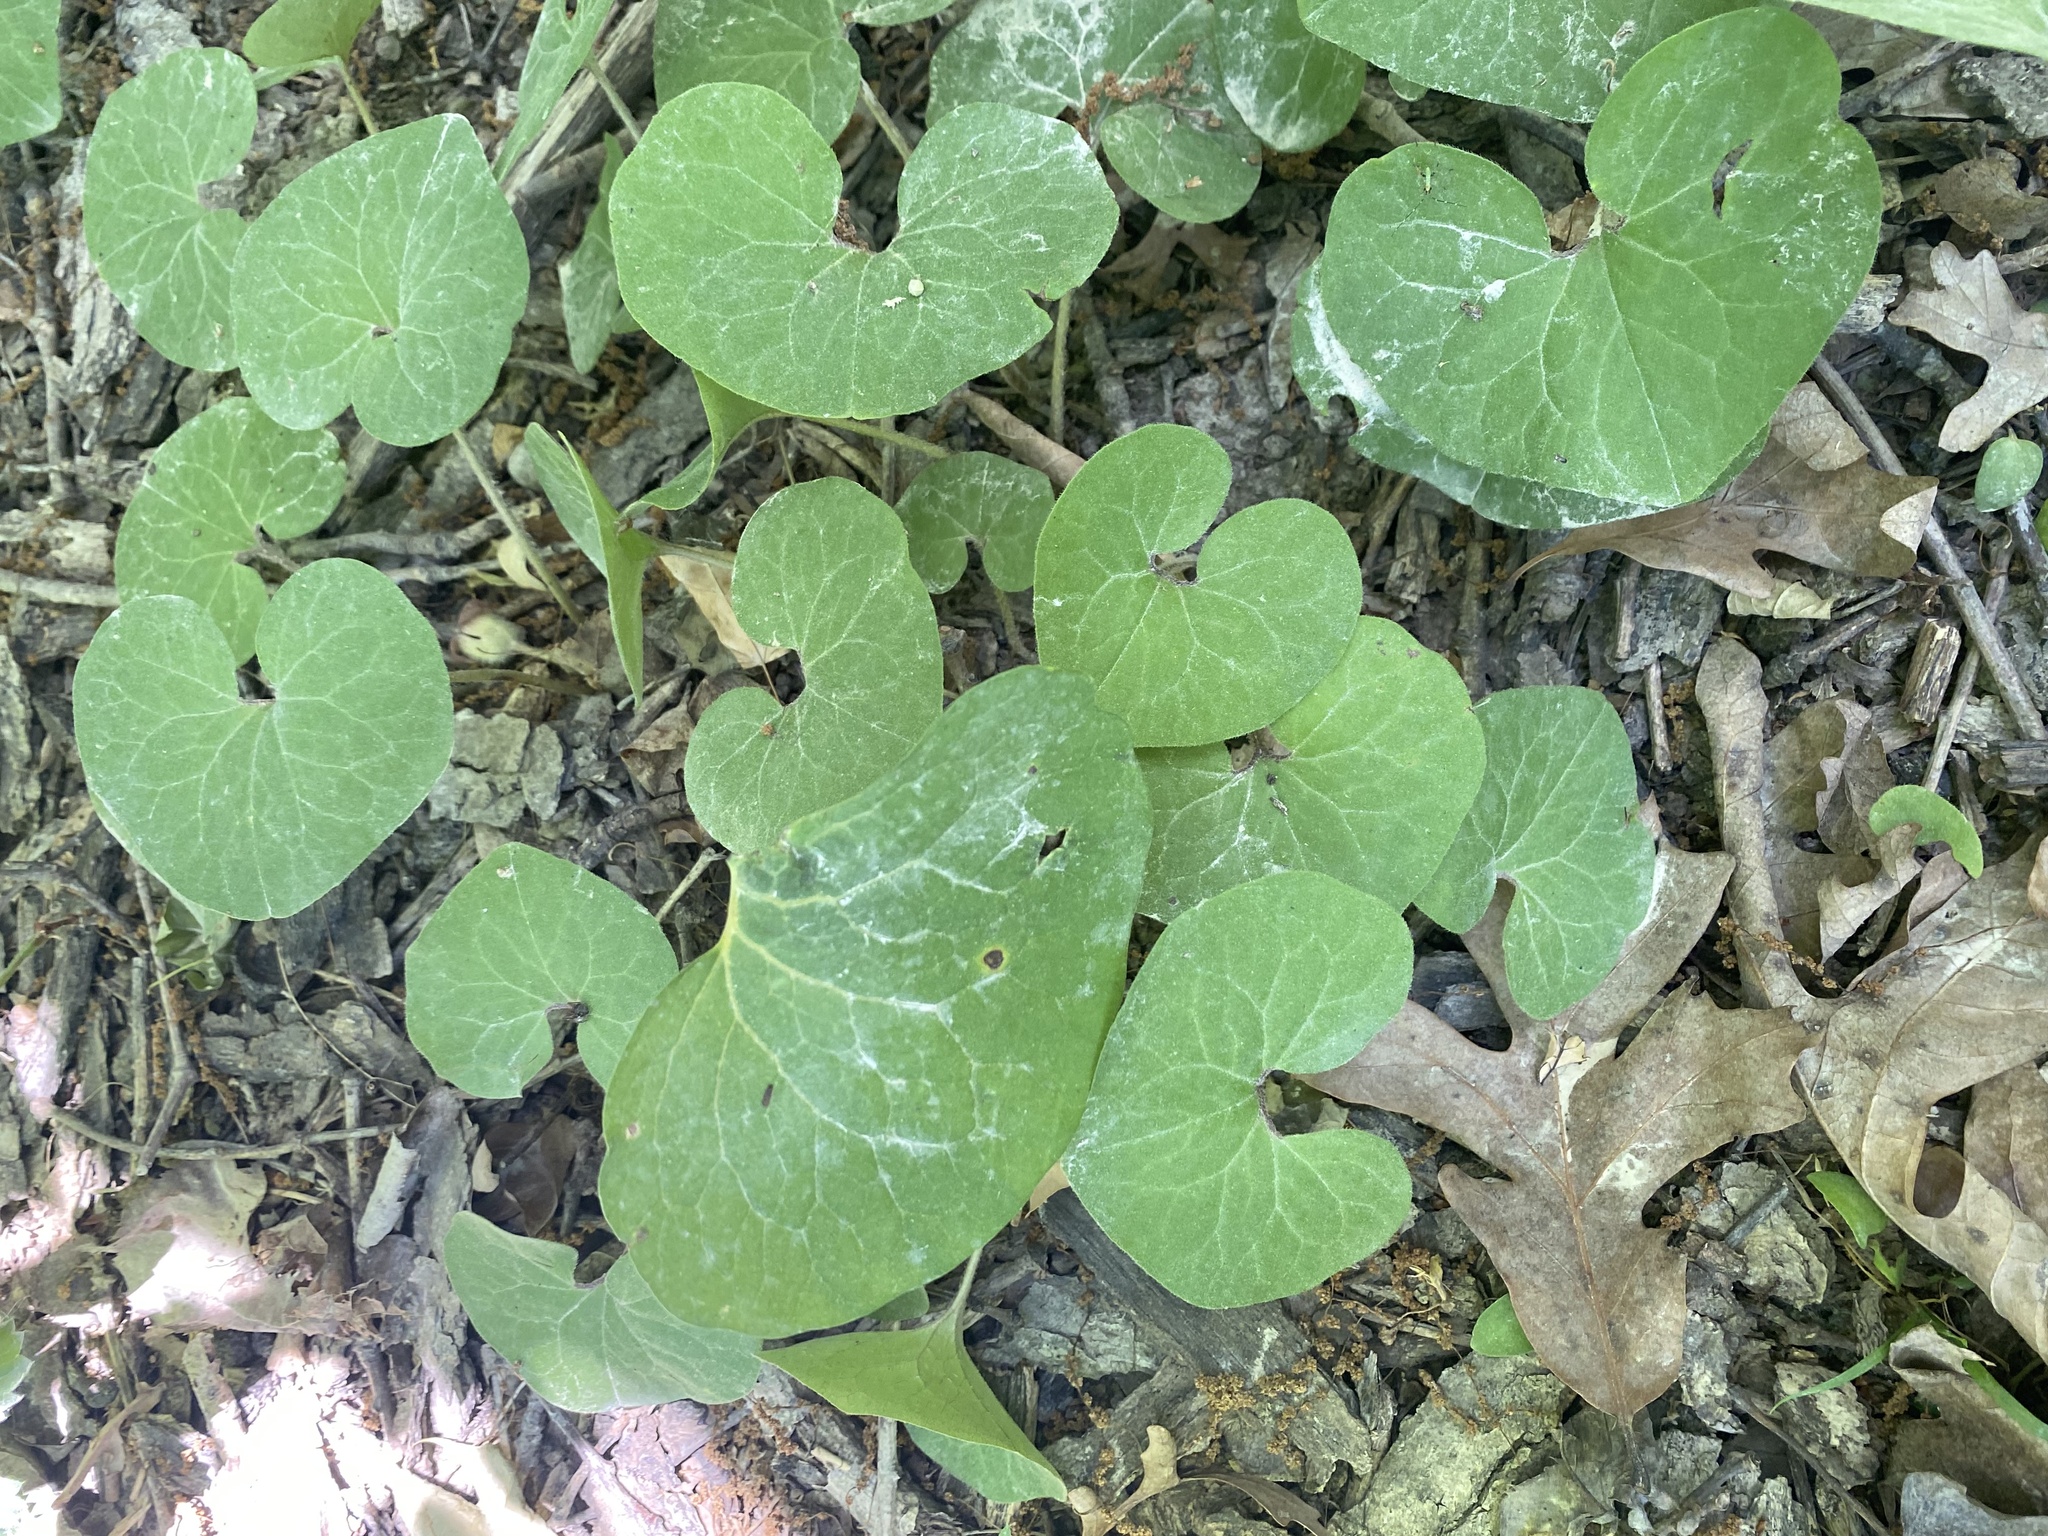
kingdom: Plantae
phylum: Tracheophyta
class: Magnoliopsida
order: Piperales
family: Aristolochiaceae
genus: Asarum
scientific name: Asarum canadense
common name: Wild ginger
